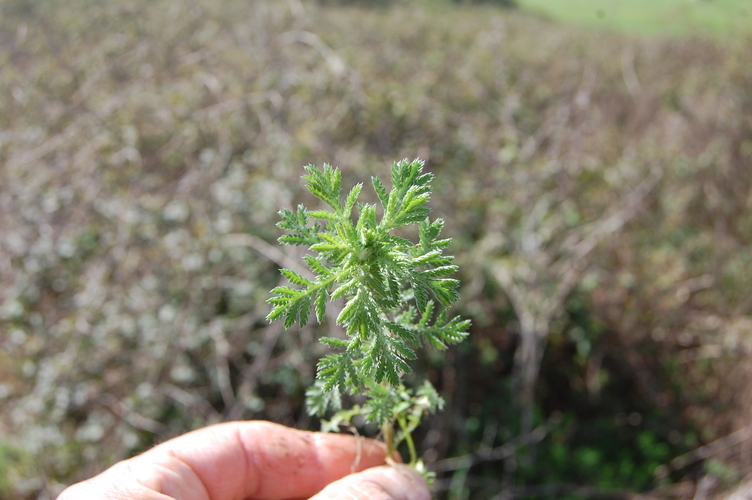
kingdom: Plantae
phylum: Tracheophyta
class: Magnoliopsida
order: Asterales
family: Asteraceae
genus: Cota
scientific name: Cota tinctoria
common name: Golden chamomile
